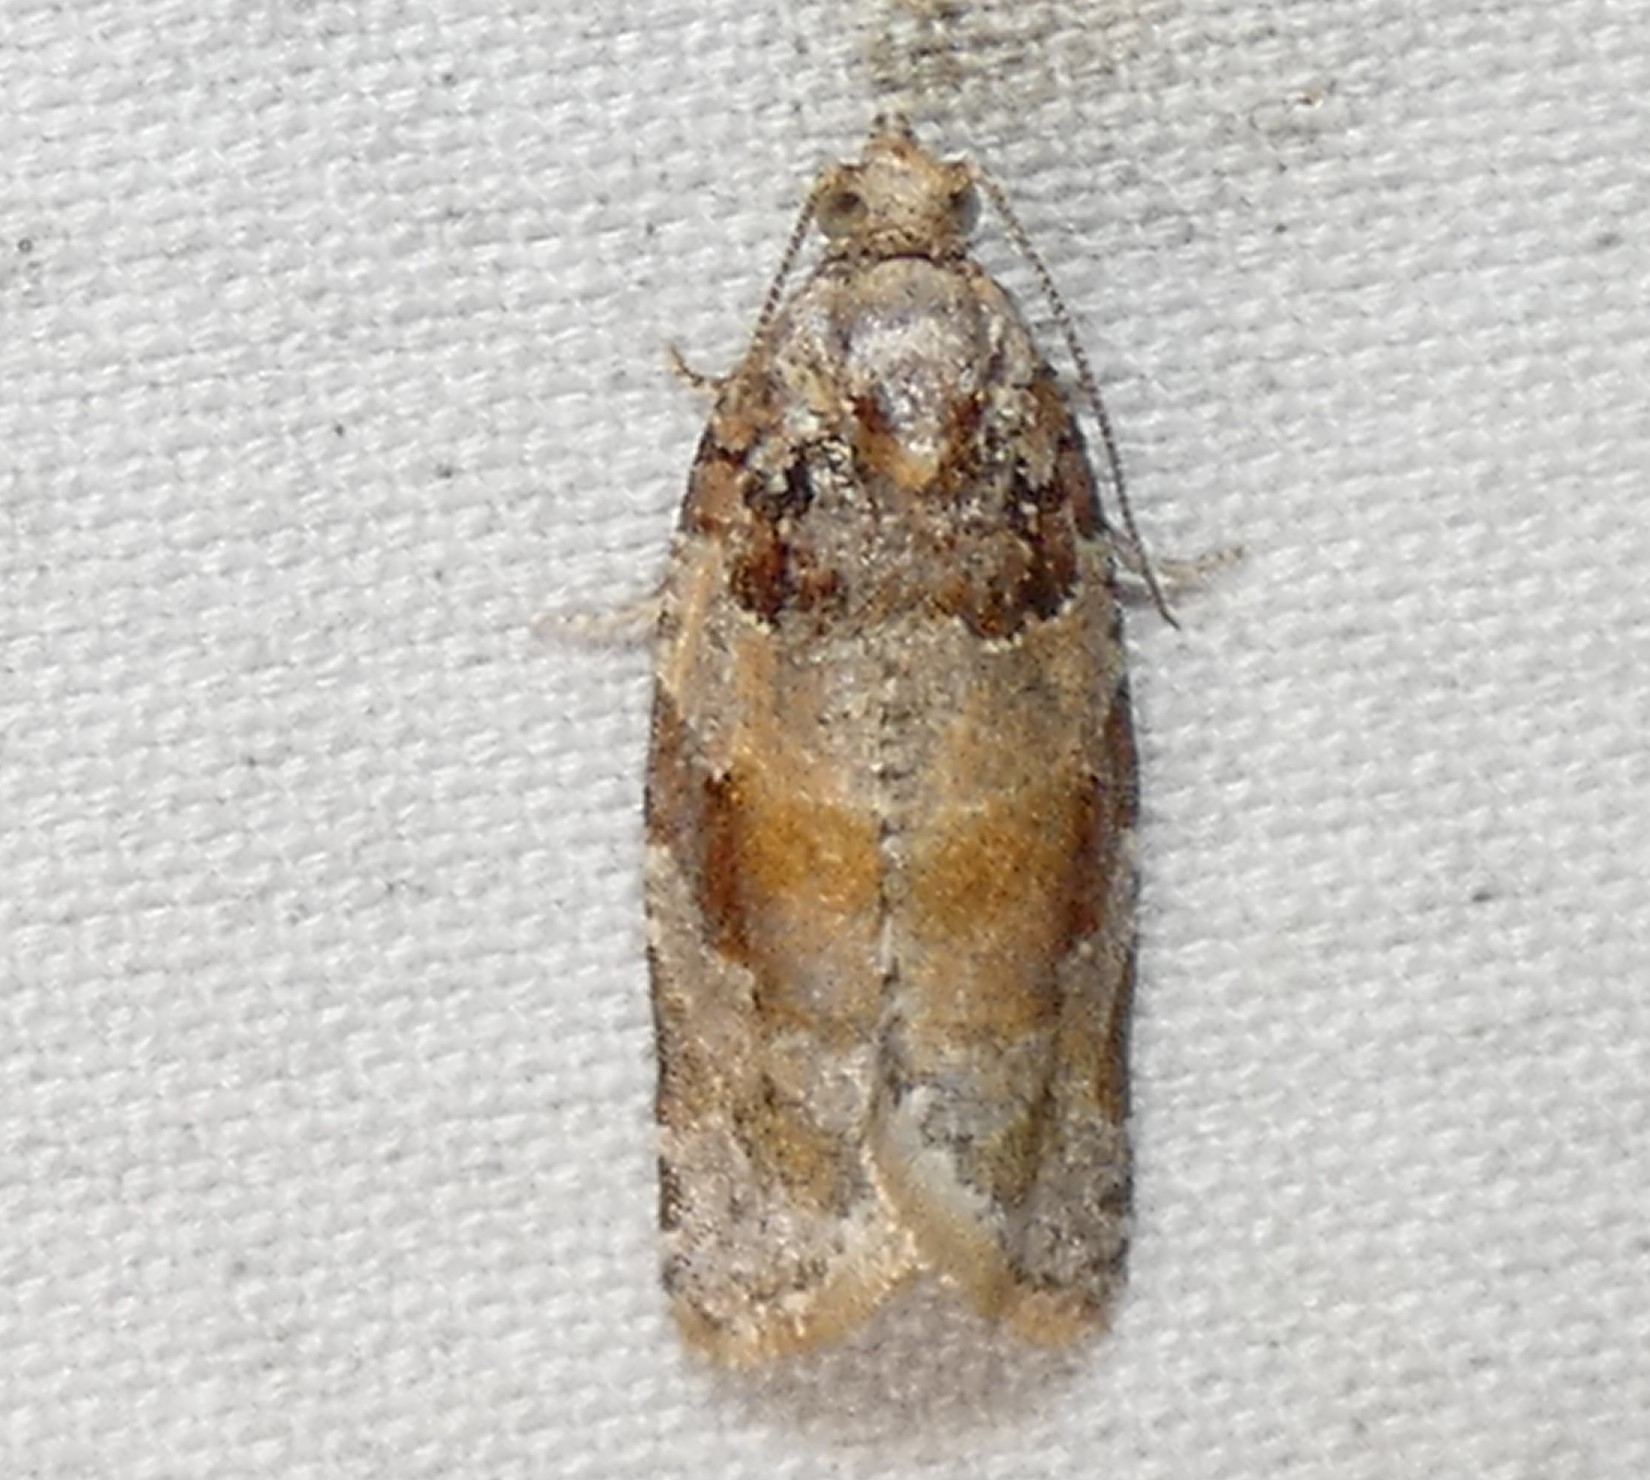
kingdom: Animalia
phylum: Arthropoda
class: Insecta
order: Lepidoptera
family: Tortricidae
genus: Argyrotaenia
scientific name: Argyrotaenia kimballi
